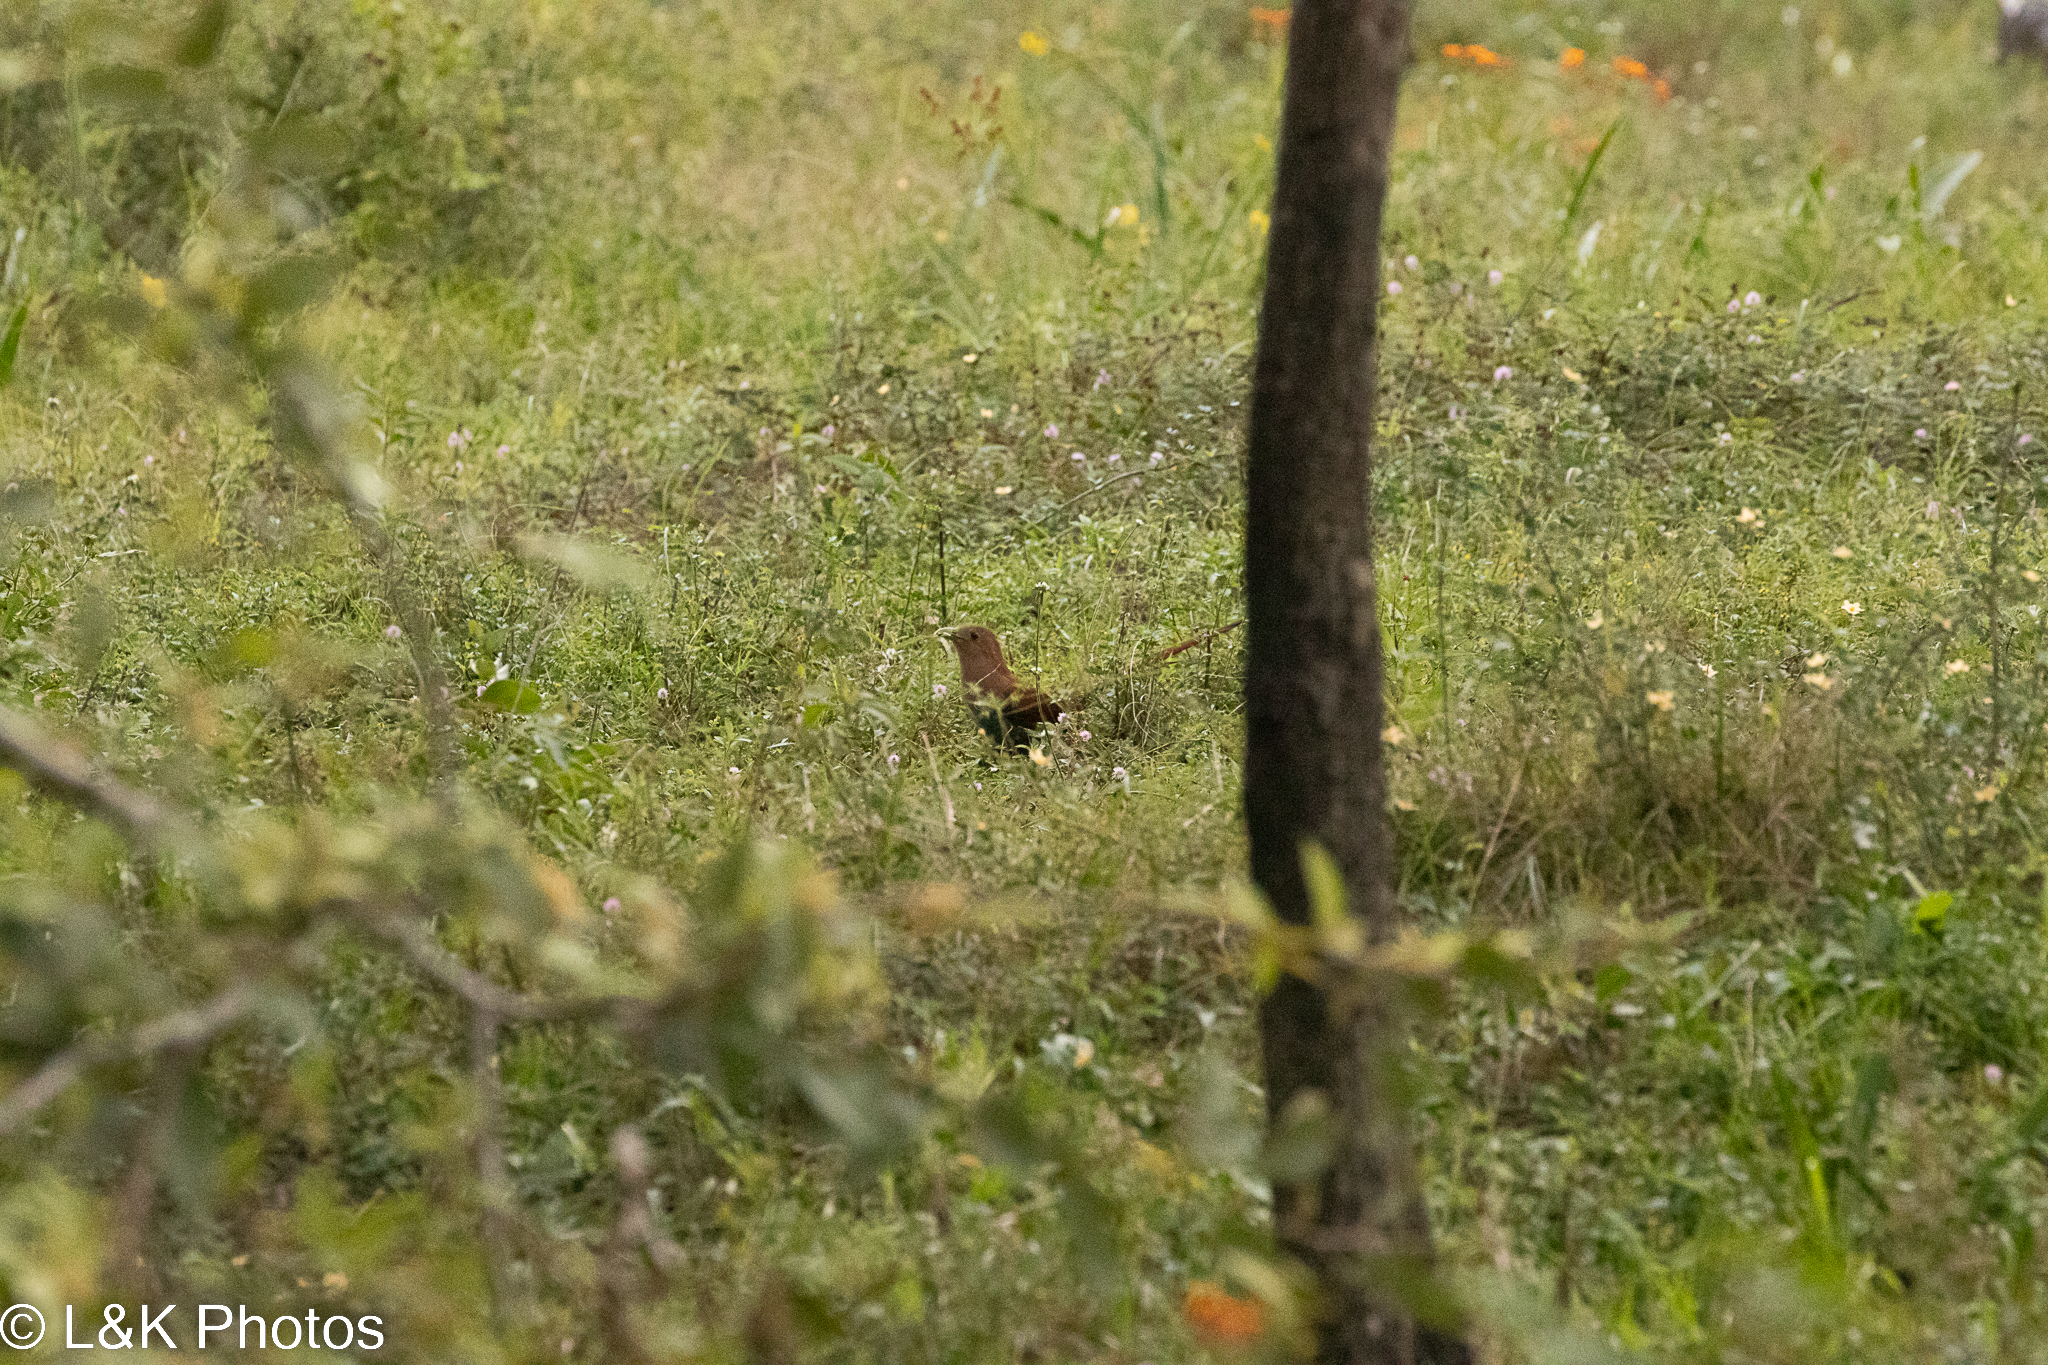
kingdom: Animalia
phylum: Chordata
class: Aves
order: Cuculiformes
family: Cuculidae
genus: Piaya
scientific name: Piaya cayana
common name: Squirrel cuckoo
